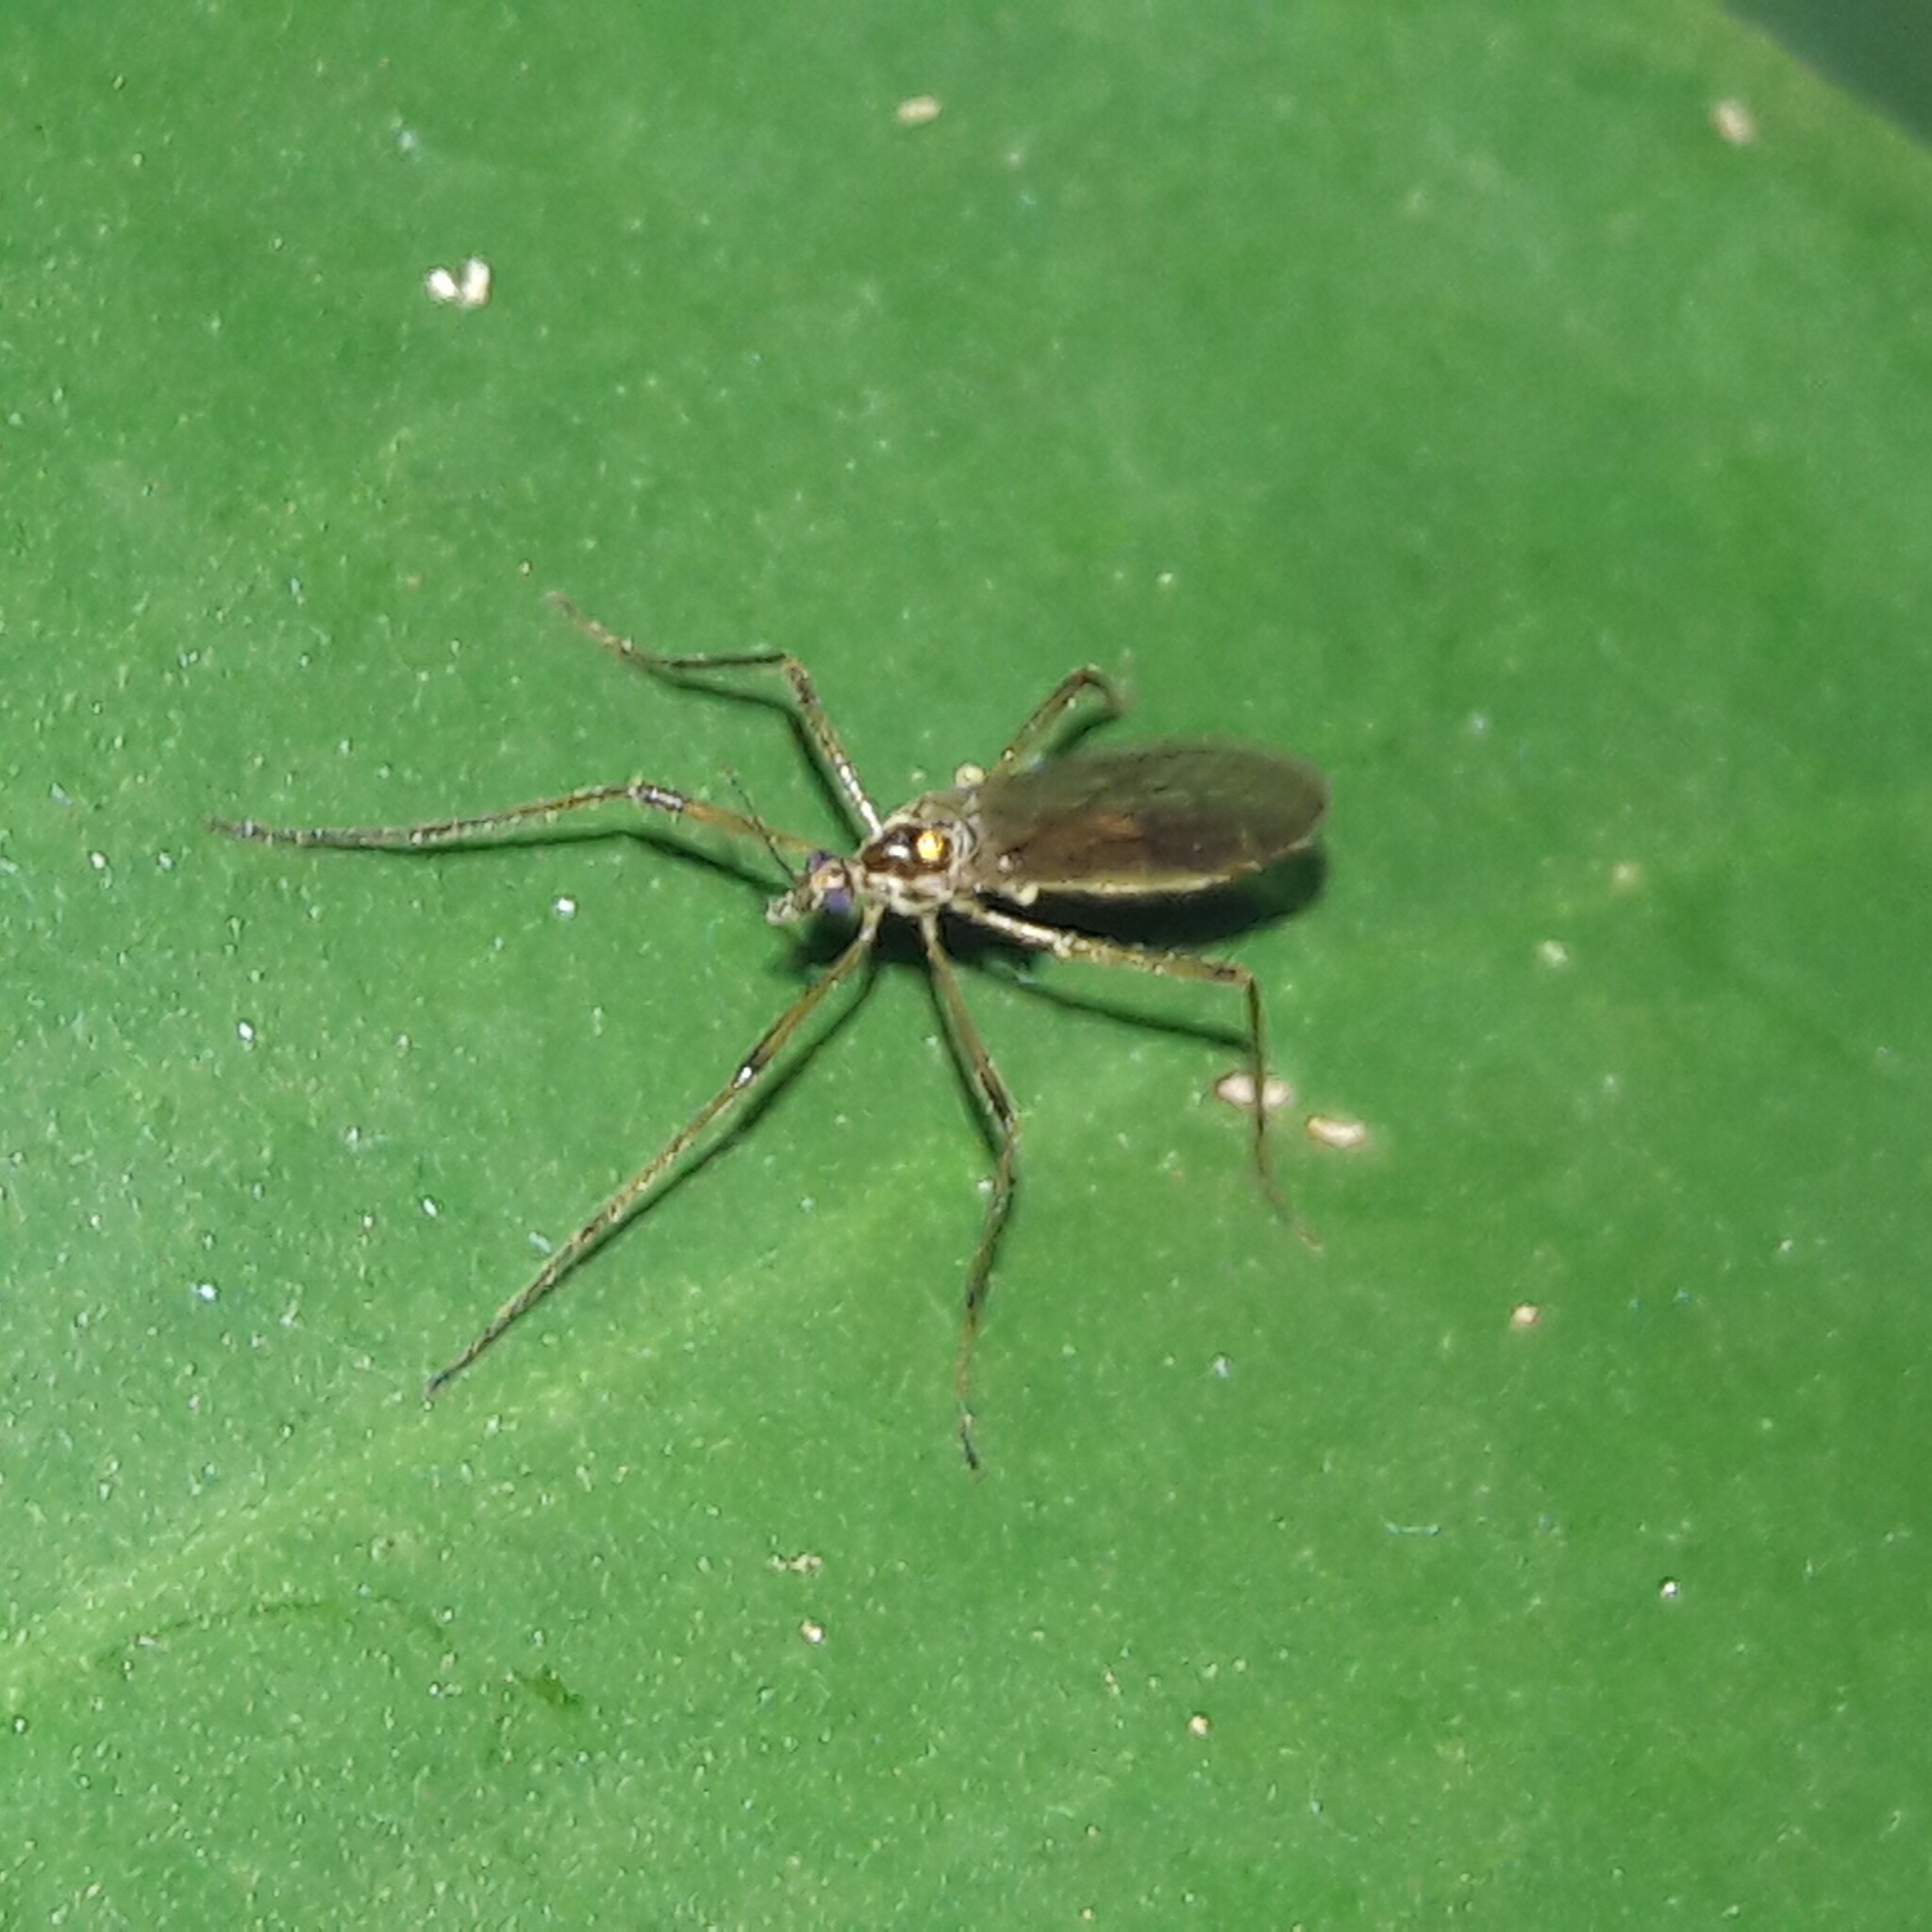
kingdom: Animalia
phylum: Arthropoda
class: Insecta
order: Diptera
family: Limoniidae
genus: Neognophomyia
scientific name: Neognophomyia immaculipennis
